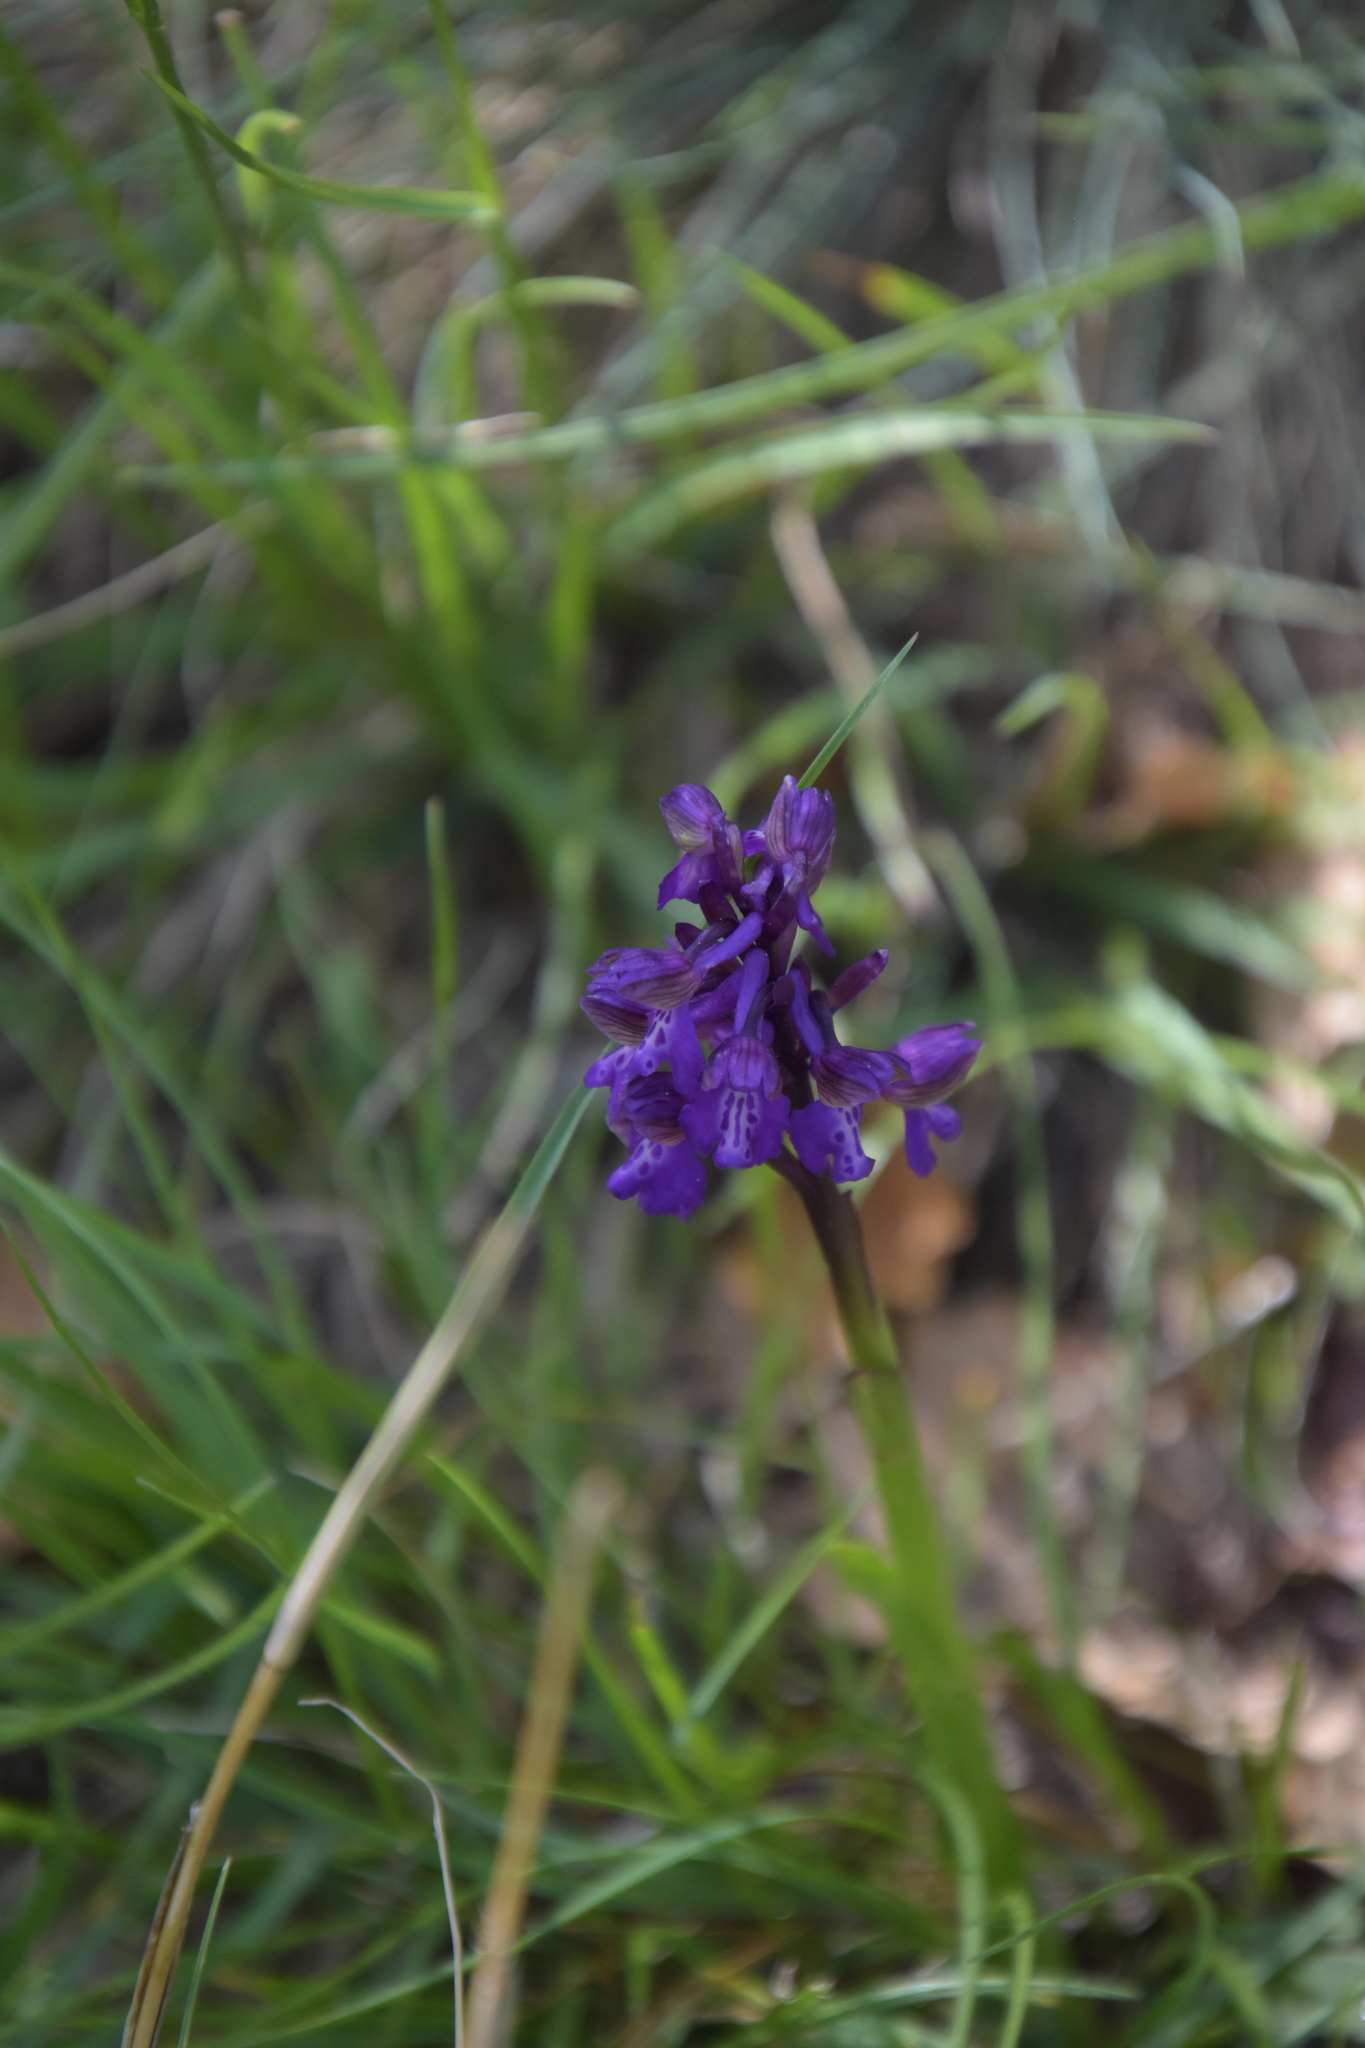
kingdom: Plantae
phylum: Tracheophyta
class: Liliopsida
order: Asparagales
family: Orchidaceae
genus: Anacamptis
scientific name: Anacamptis morio
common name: Green-winged orchid
